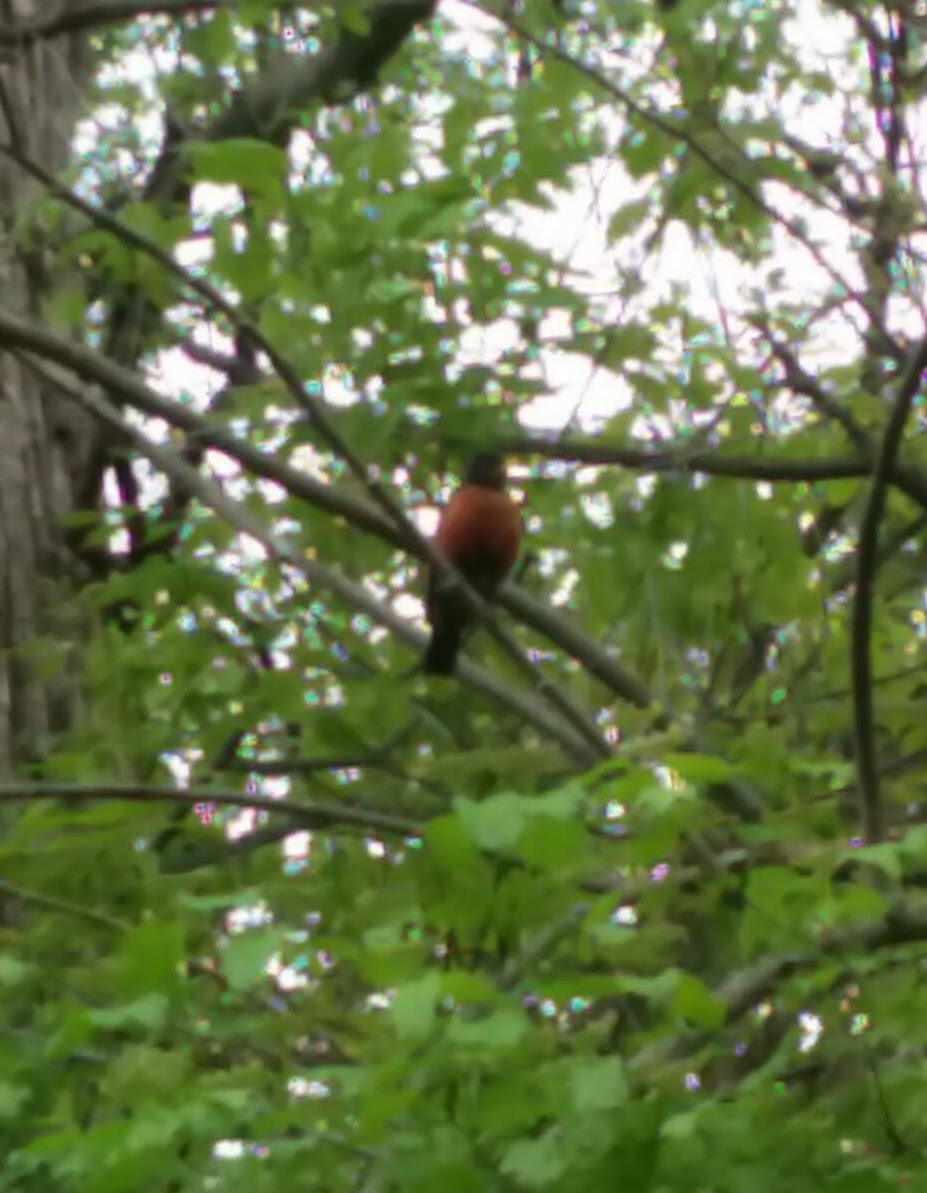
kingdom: Animalia
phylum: Chordata
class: Aves
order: Passeriformes
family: Turdidae
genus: Turdus
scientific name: Turdus migratorius
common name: American robin
